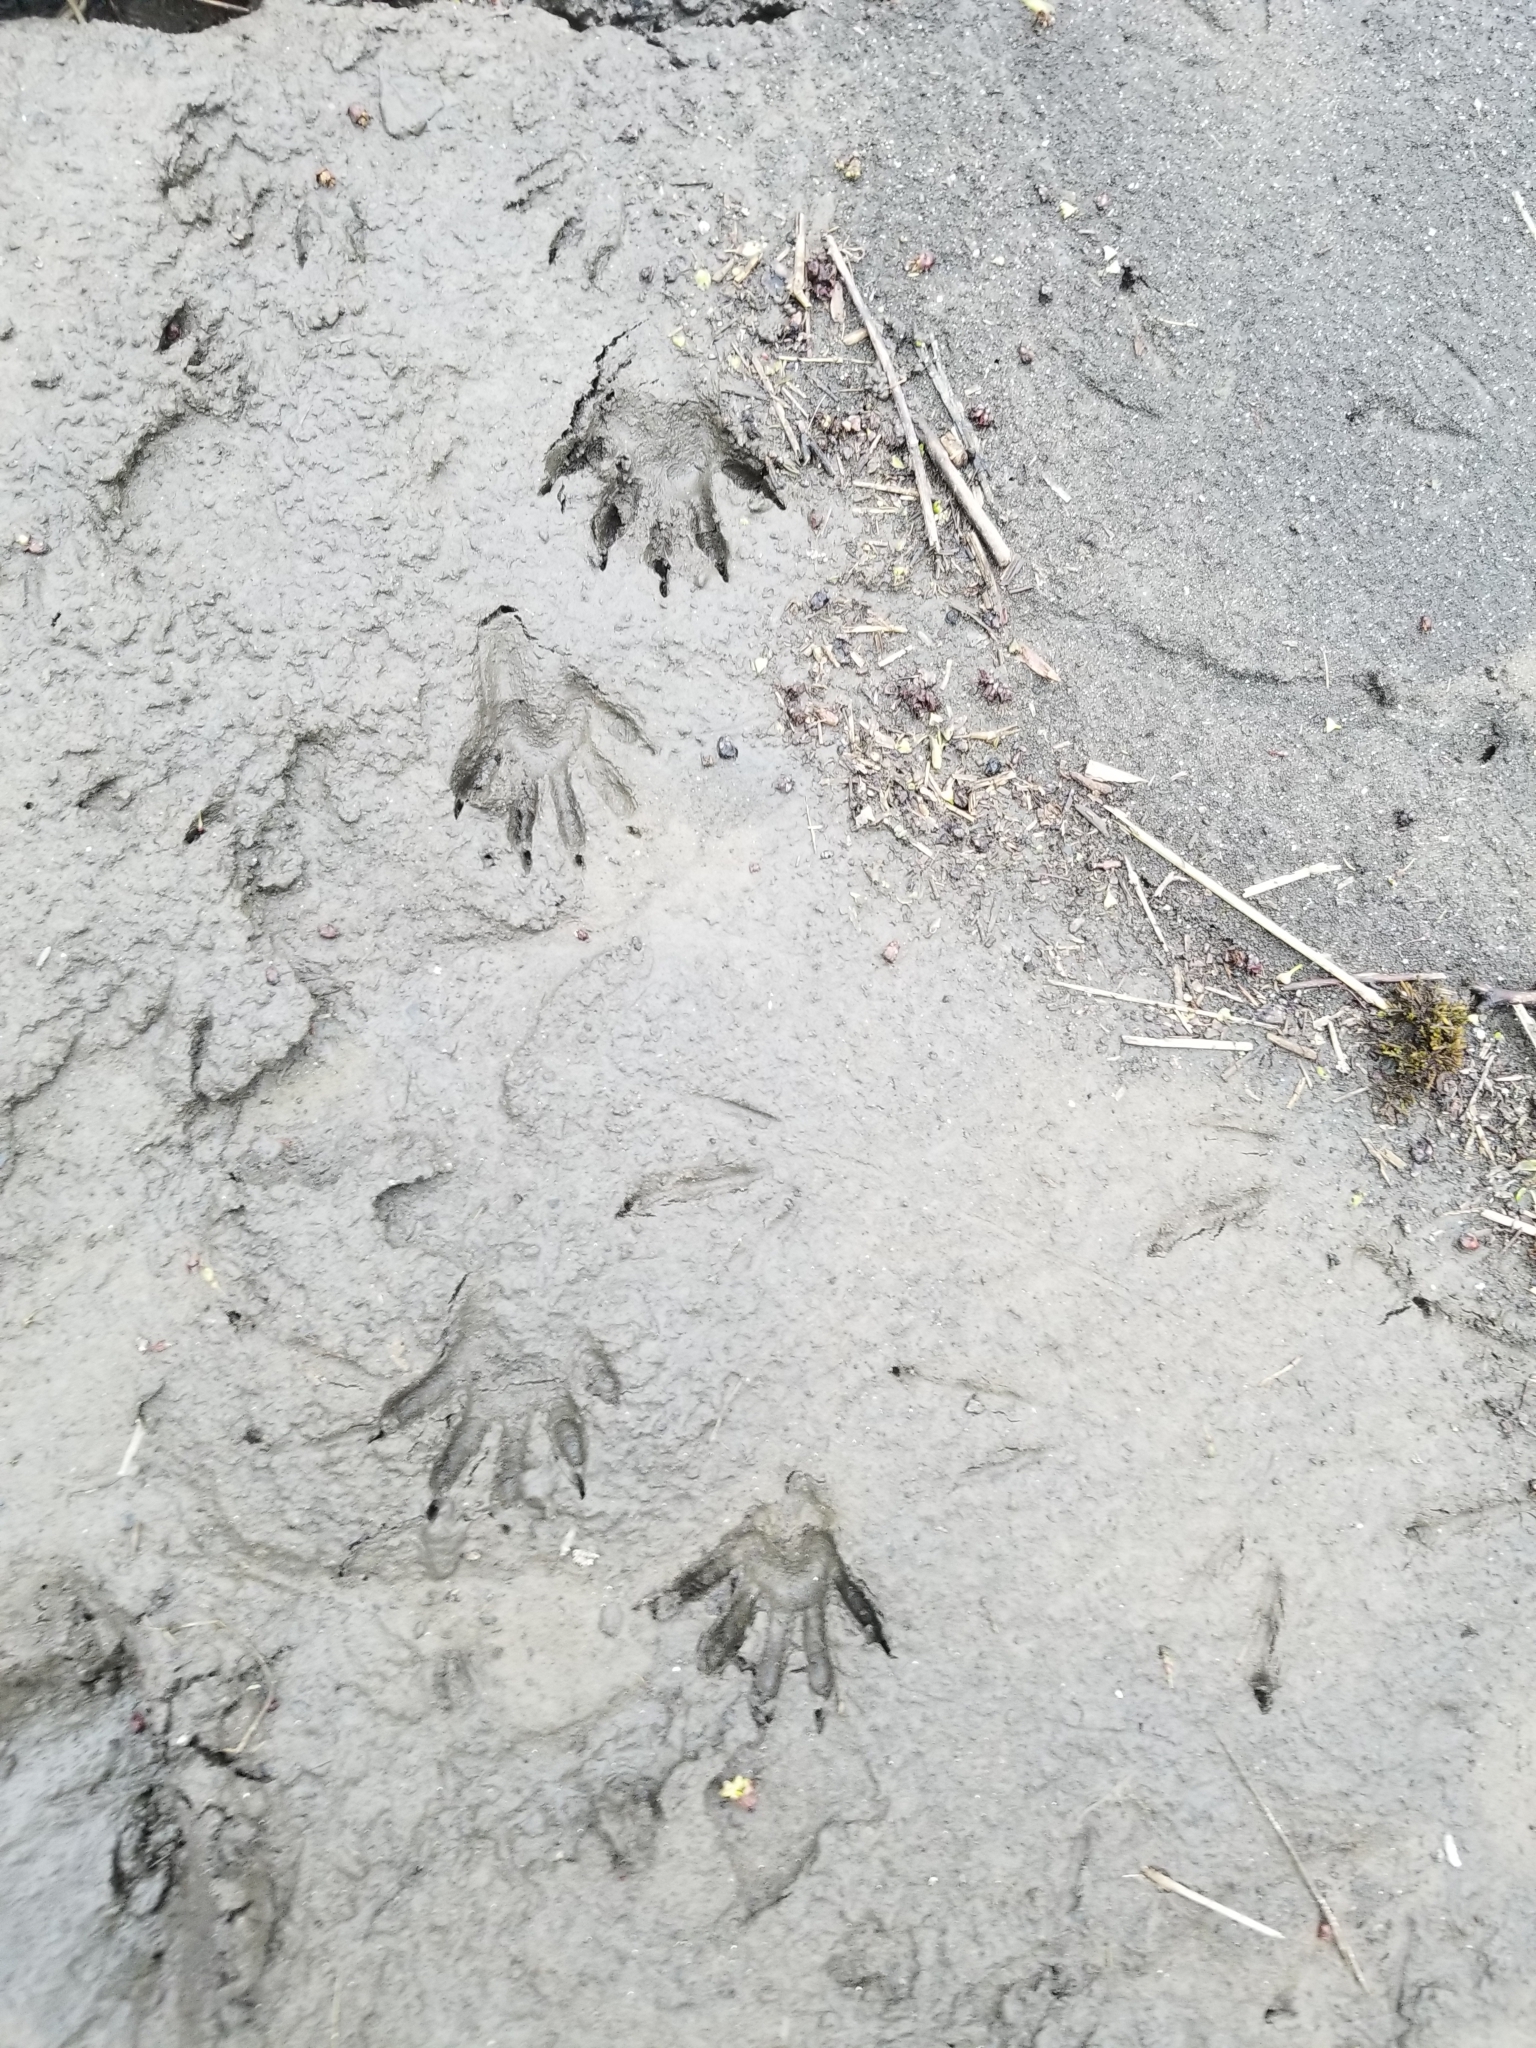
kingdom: Animalia
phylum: Chordata
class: Mammalia
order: Carnivora
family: Procyonidae
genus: Procyon
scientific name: Procyon lotor
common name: Raccoon
